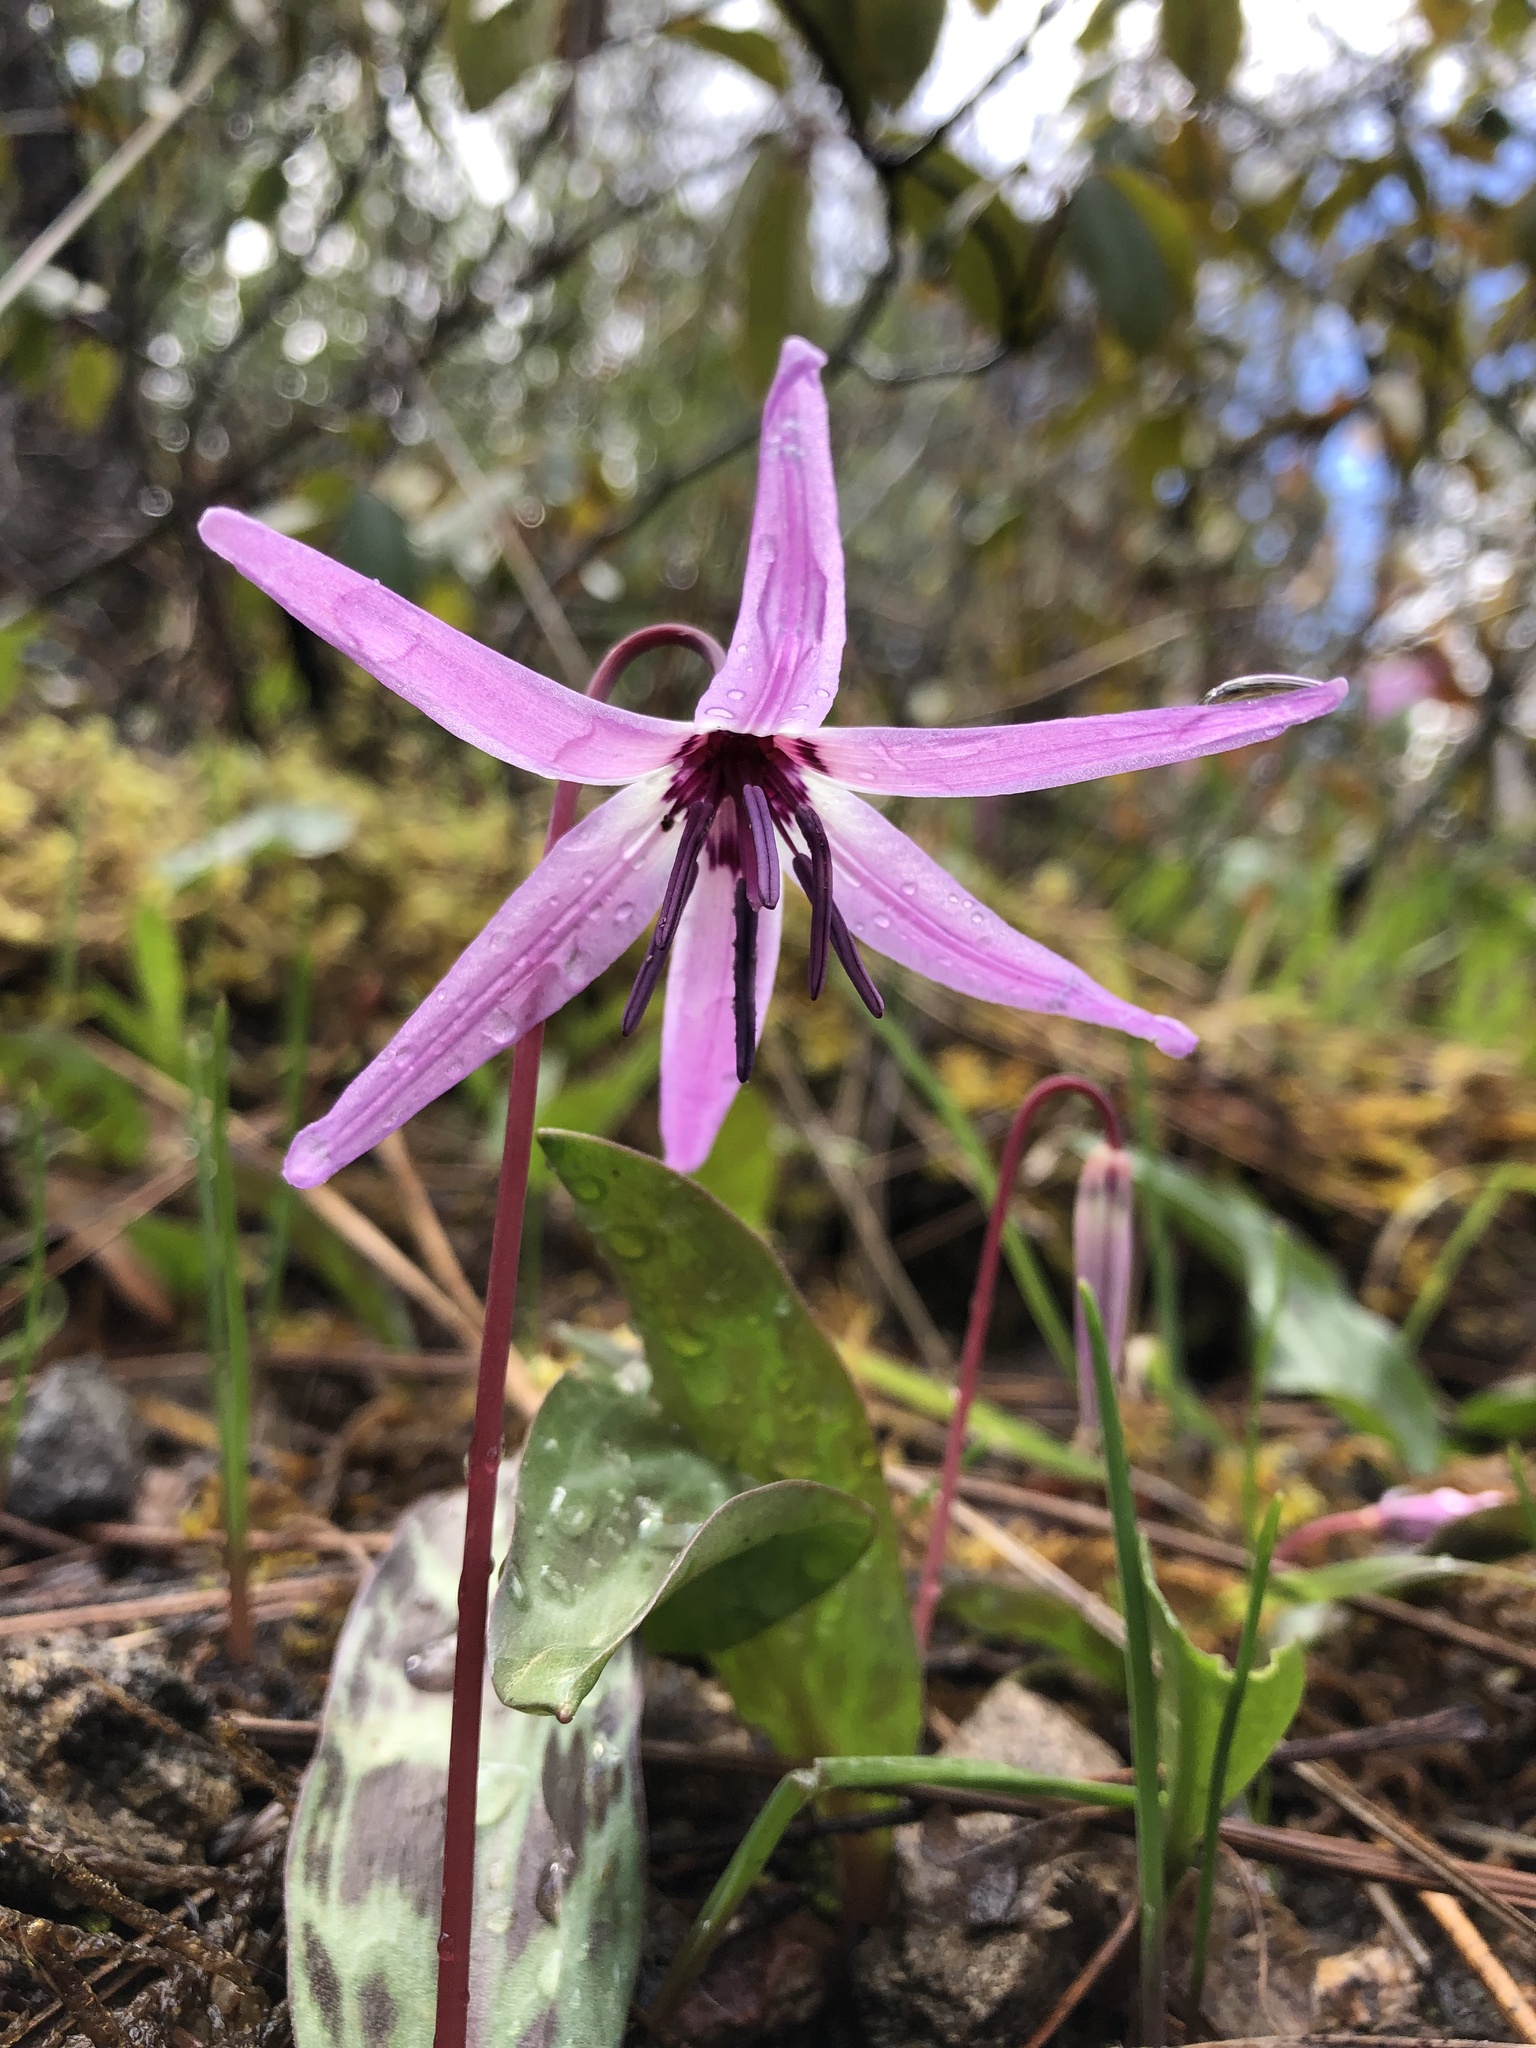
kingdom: Plantae
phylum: Tracheophyta
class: Liliopsida
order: Liliales
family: Liliaceae
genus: Erythronium
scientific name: Erythronium hendersonii
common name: Henderson's fawn-lily
